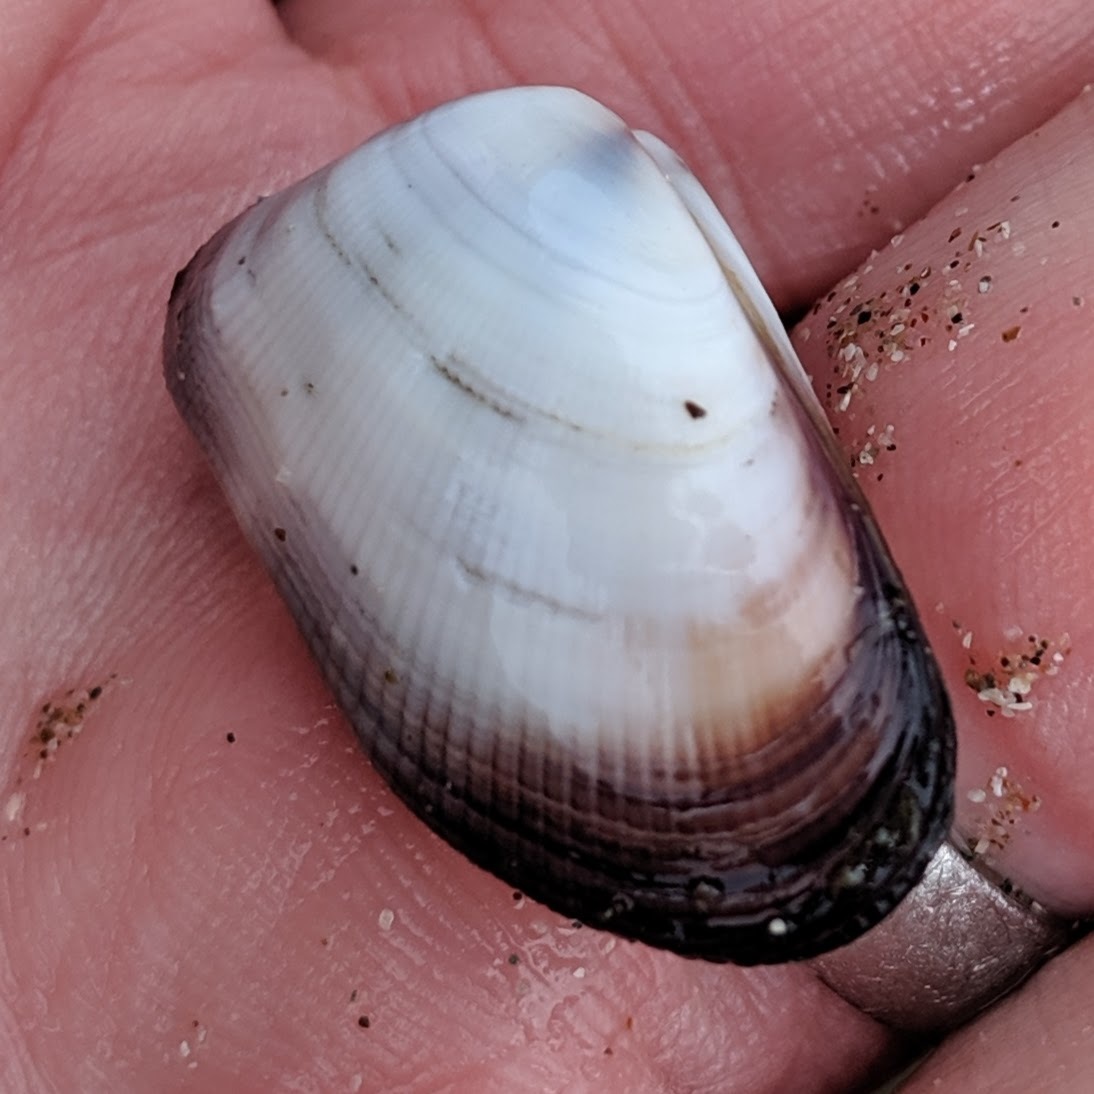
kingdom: Animalia
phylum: Mollusca
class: Bivalvia
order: Cardiida
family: Donacidae
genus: Donax
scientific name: Donax gouldii
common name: Gould beanclam
